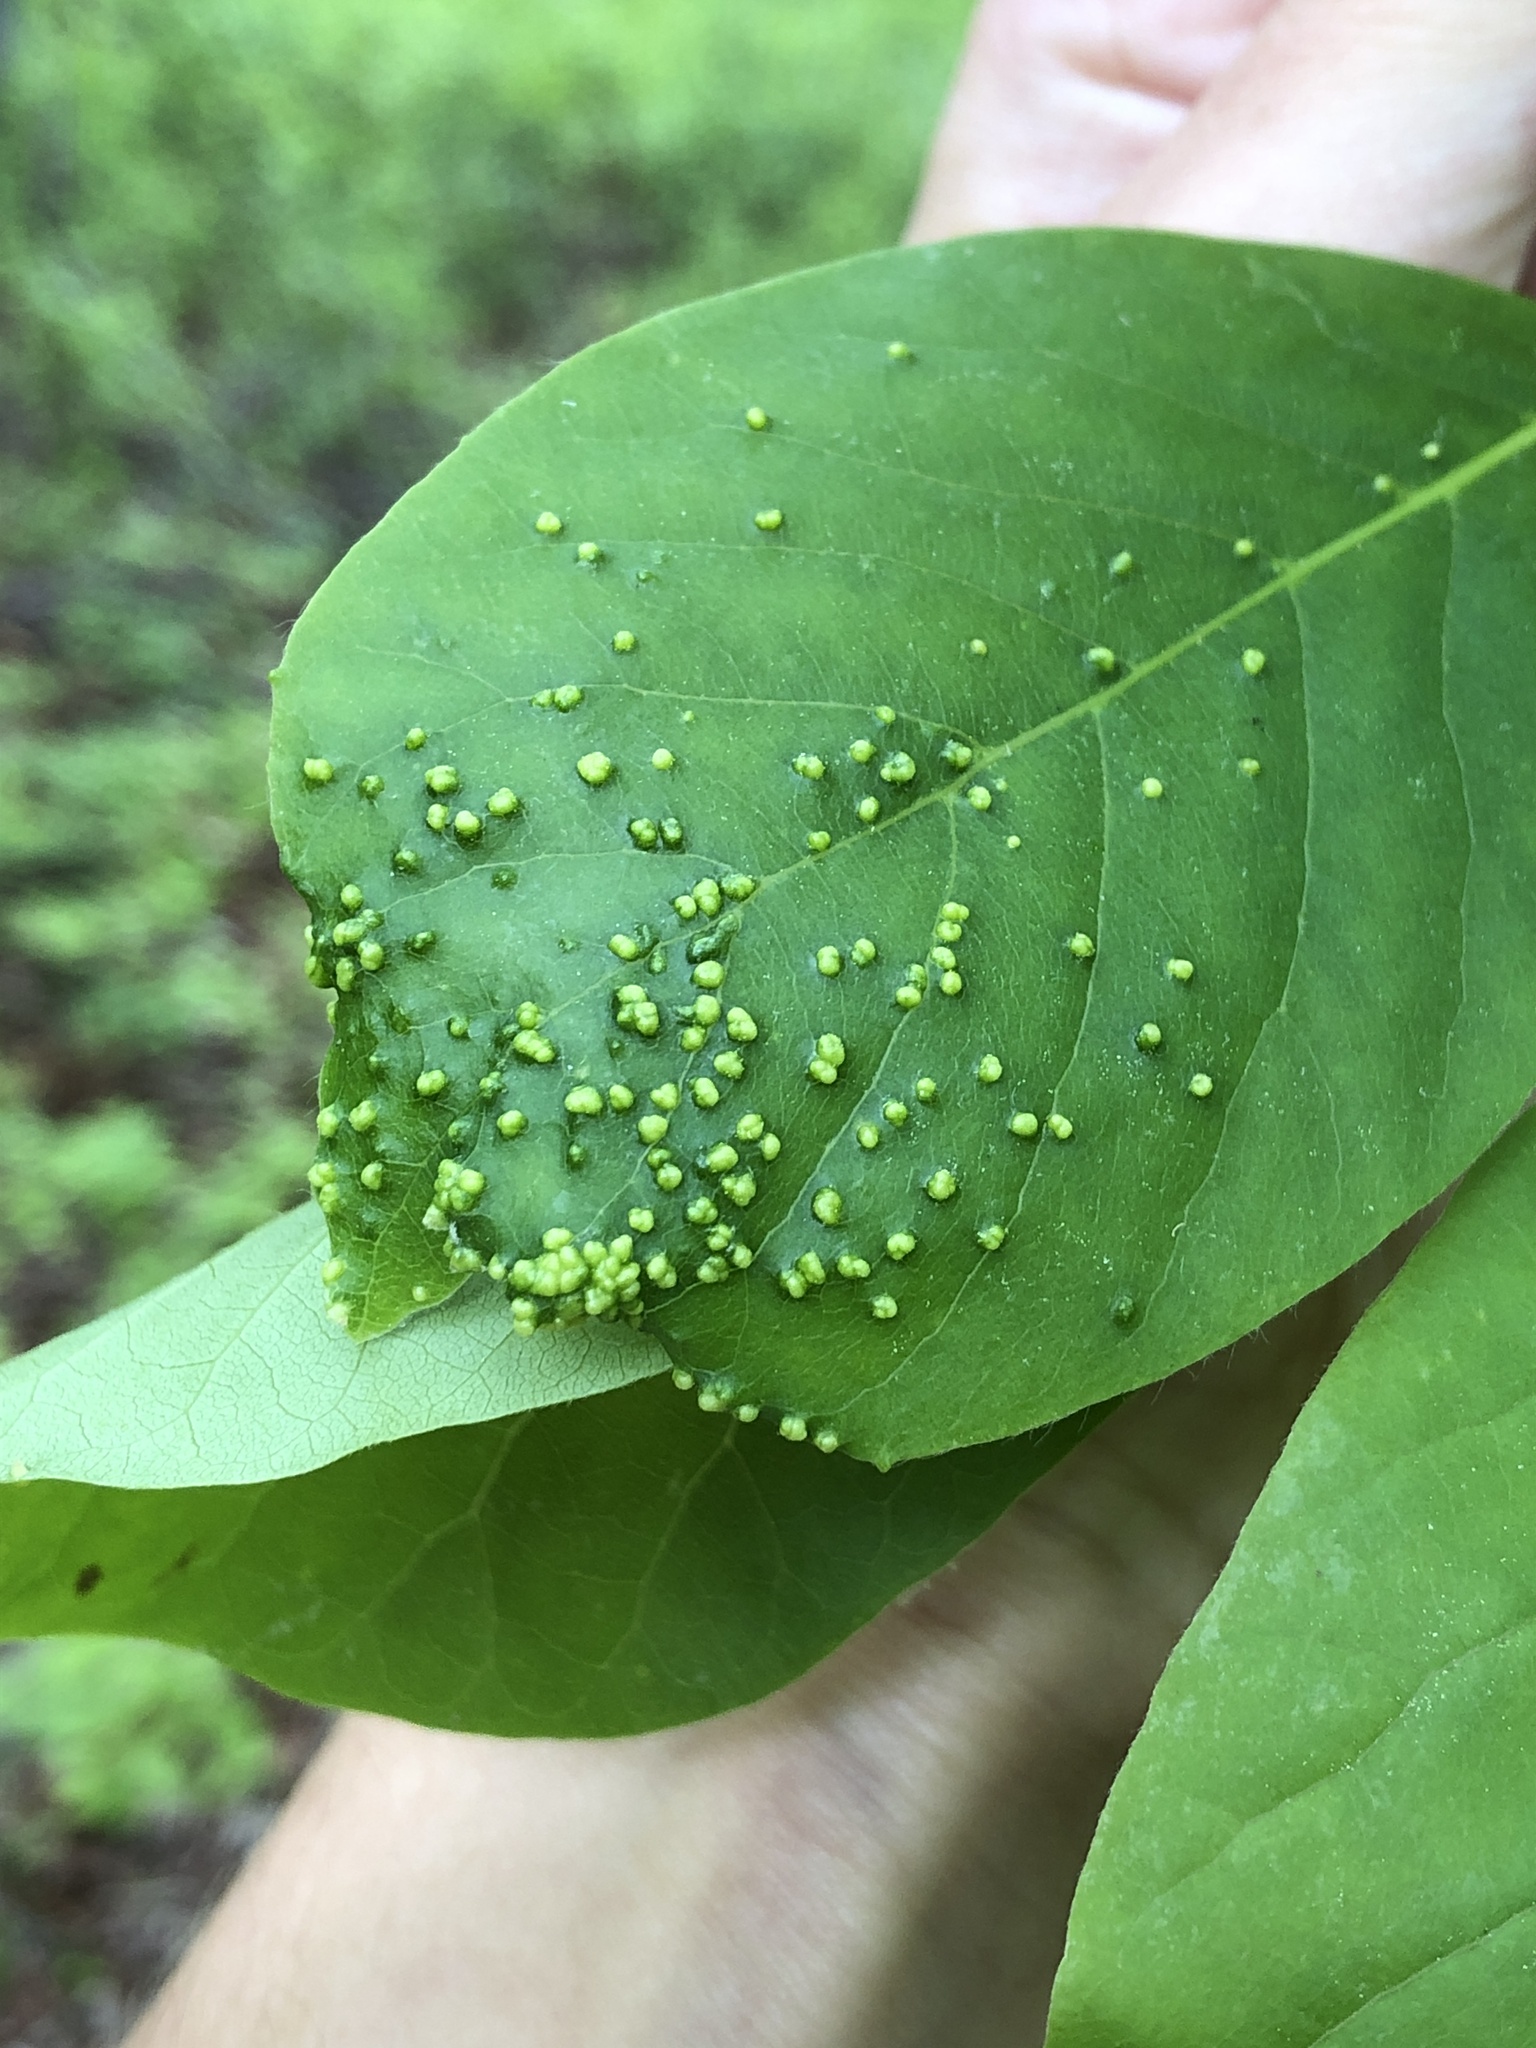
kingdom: Animalia
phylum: Arthropoda
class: Arachnida
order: Trombidiformes
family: Eriophyidae
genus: Aceria
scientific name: Aceria
